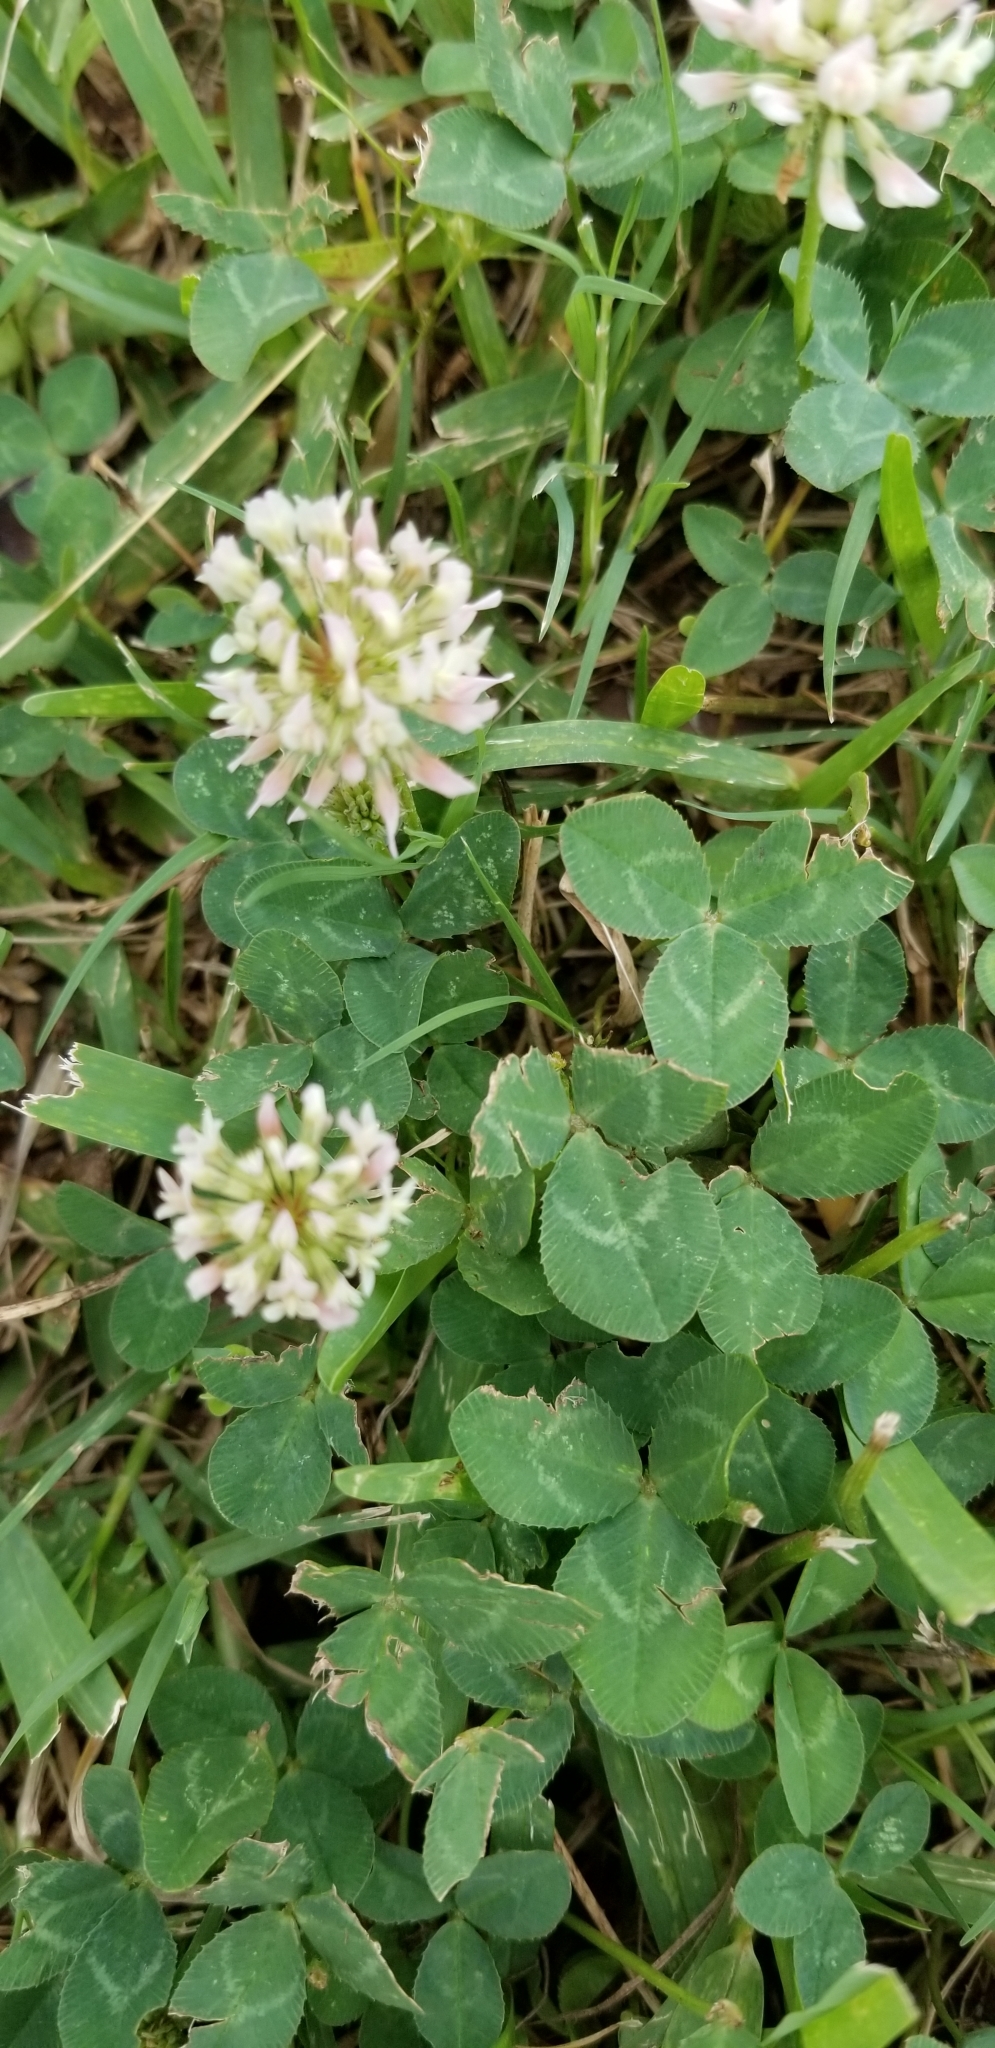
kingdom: Plantae
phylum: Tracheophyta
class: Magnoliopsida
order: Fabales
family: Fabaceae
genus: Trifolium
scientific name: Trifolium repens
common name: White clover
